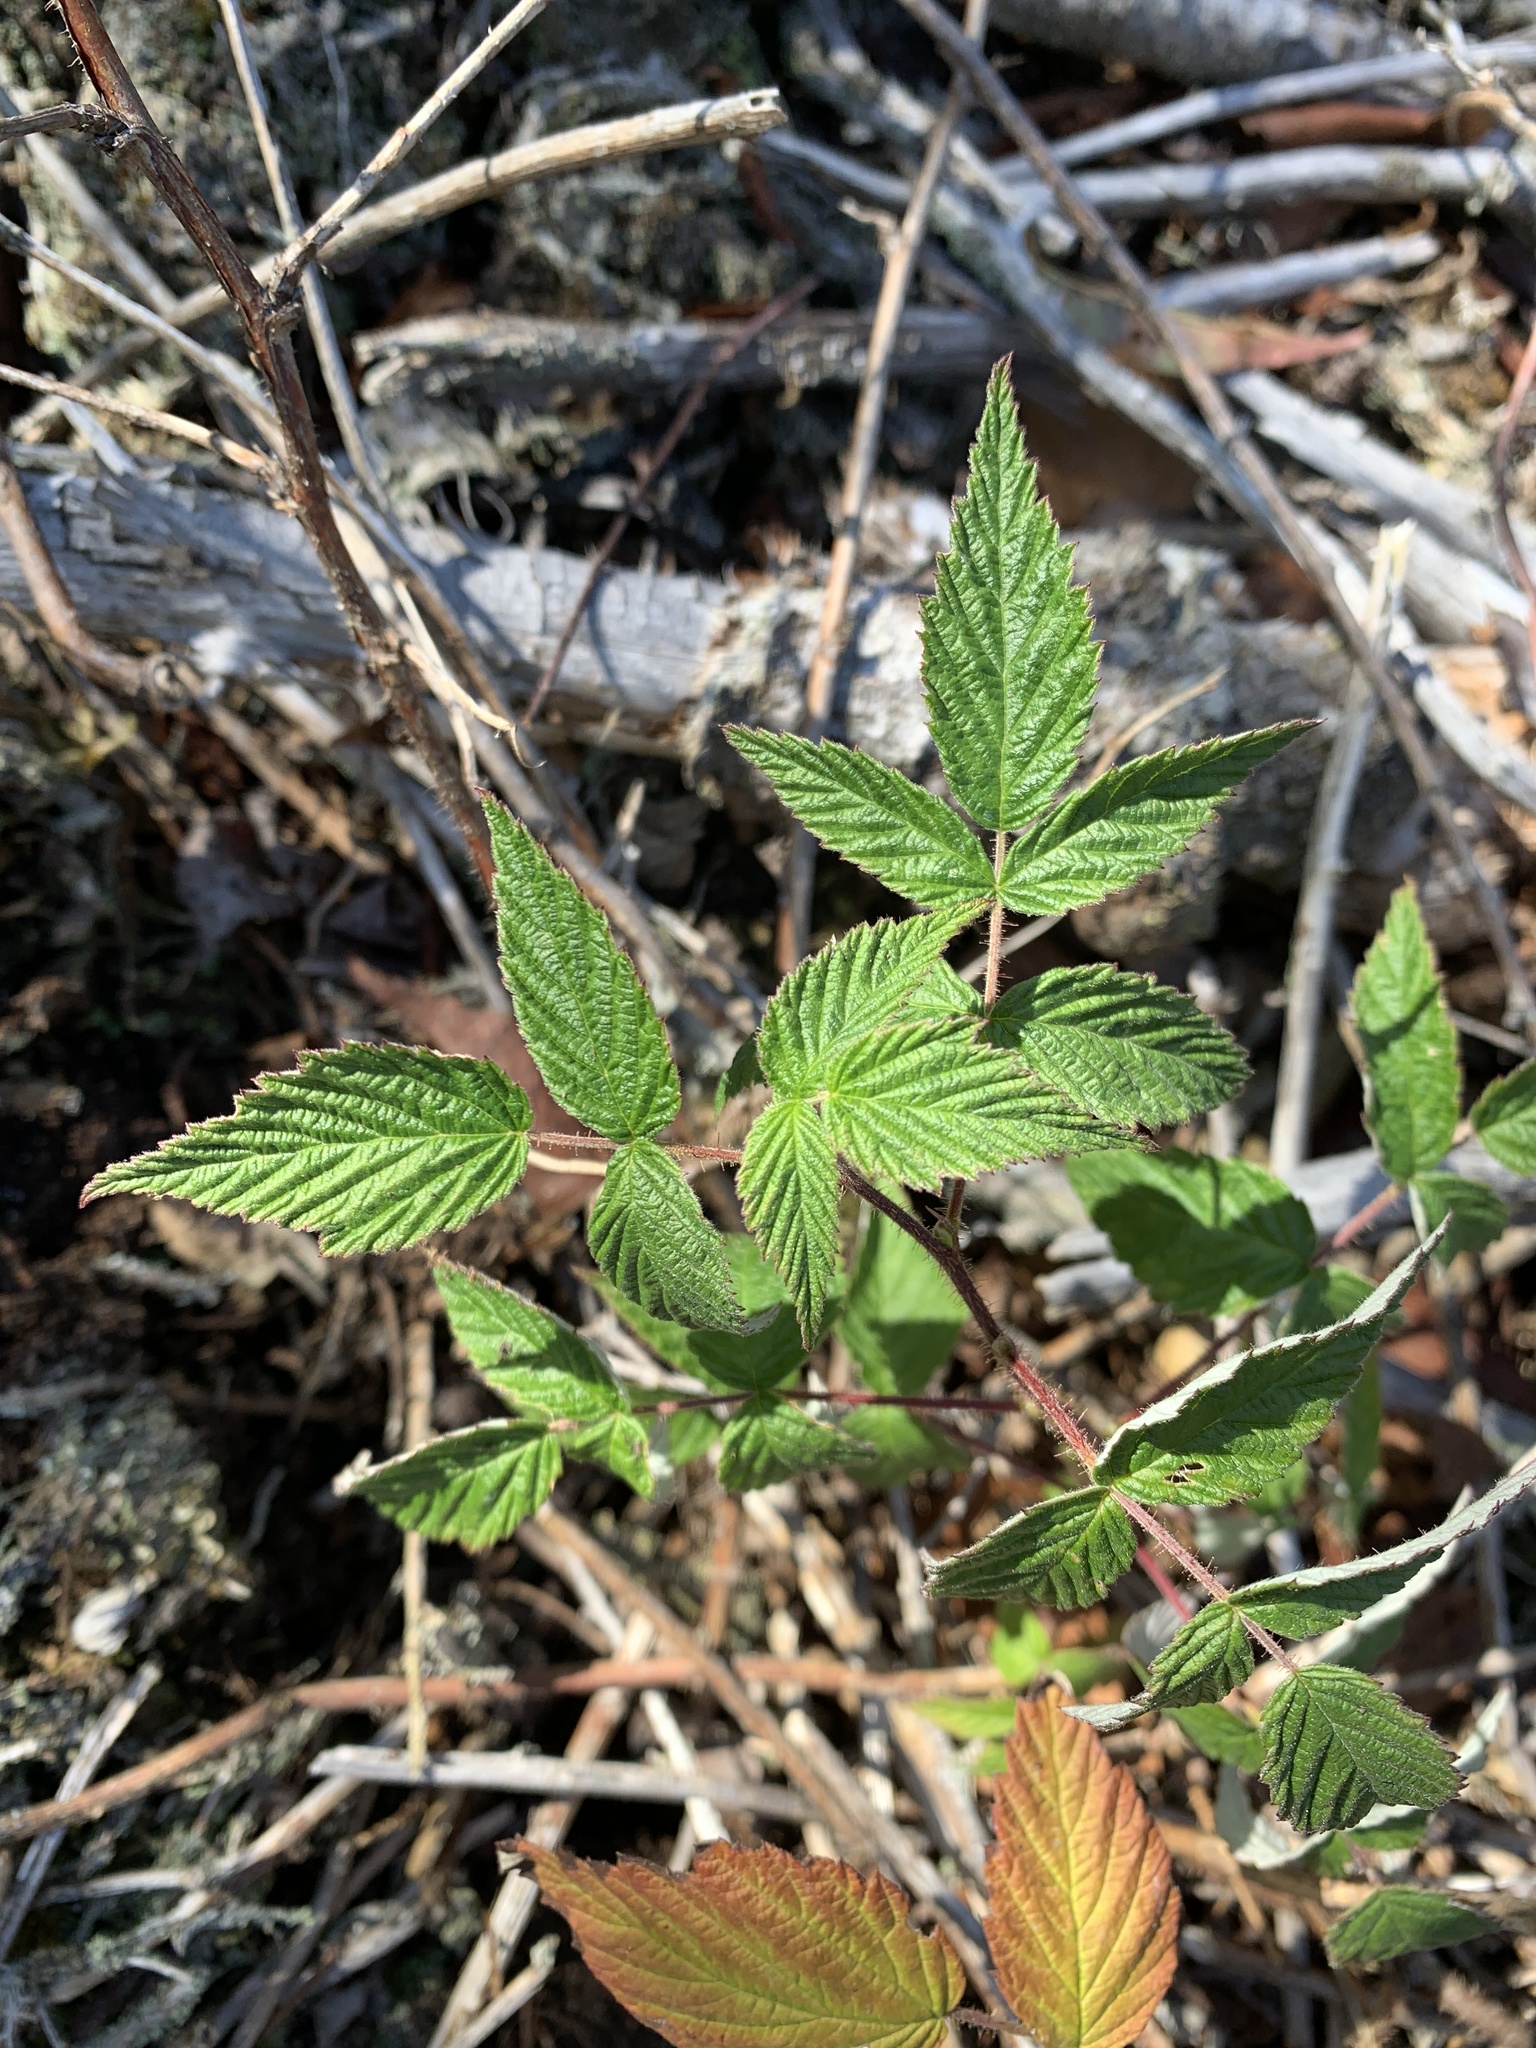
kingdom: Plantae
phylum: Tracheophyta
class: Magnoliopsida
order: Rosales
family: Rosaceae
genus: Rubus
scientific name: Rubus idaeus
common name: Raspberry
